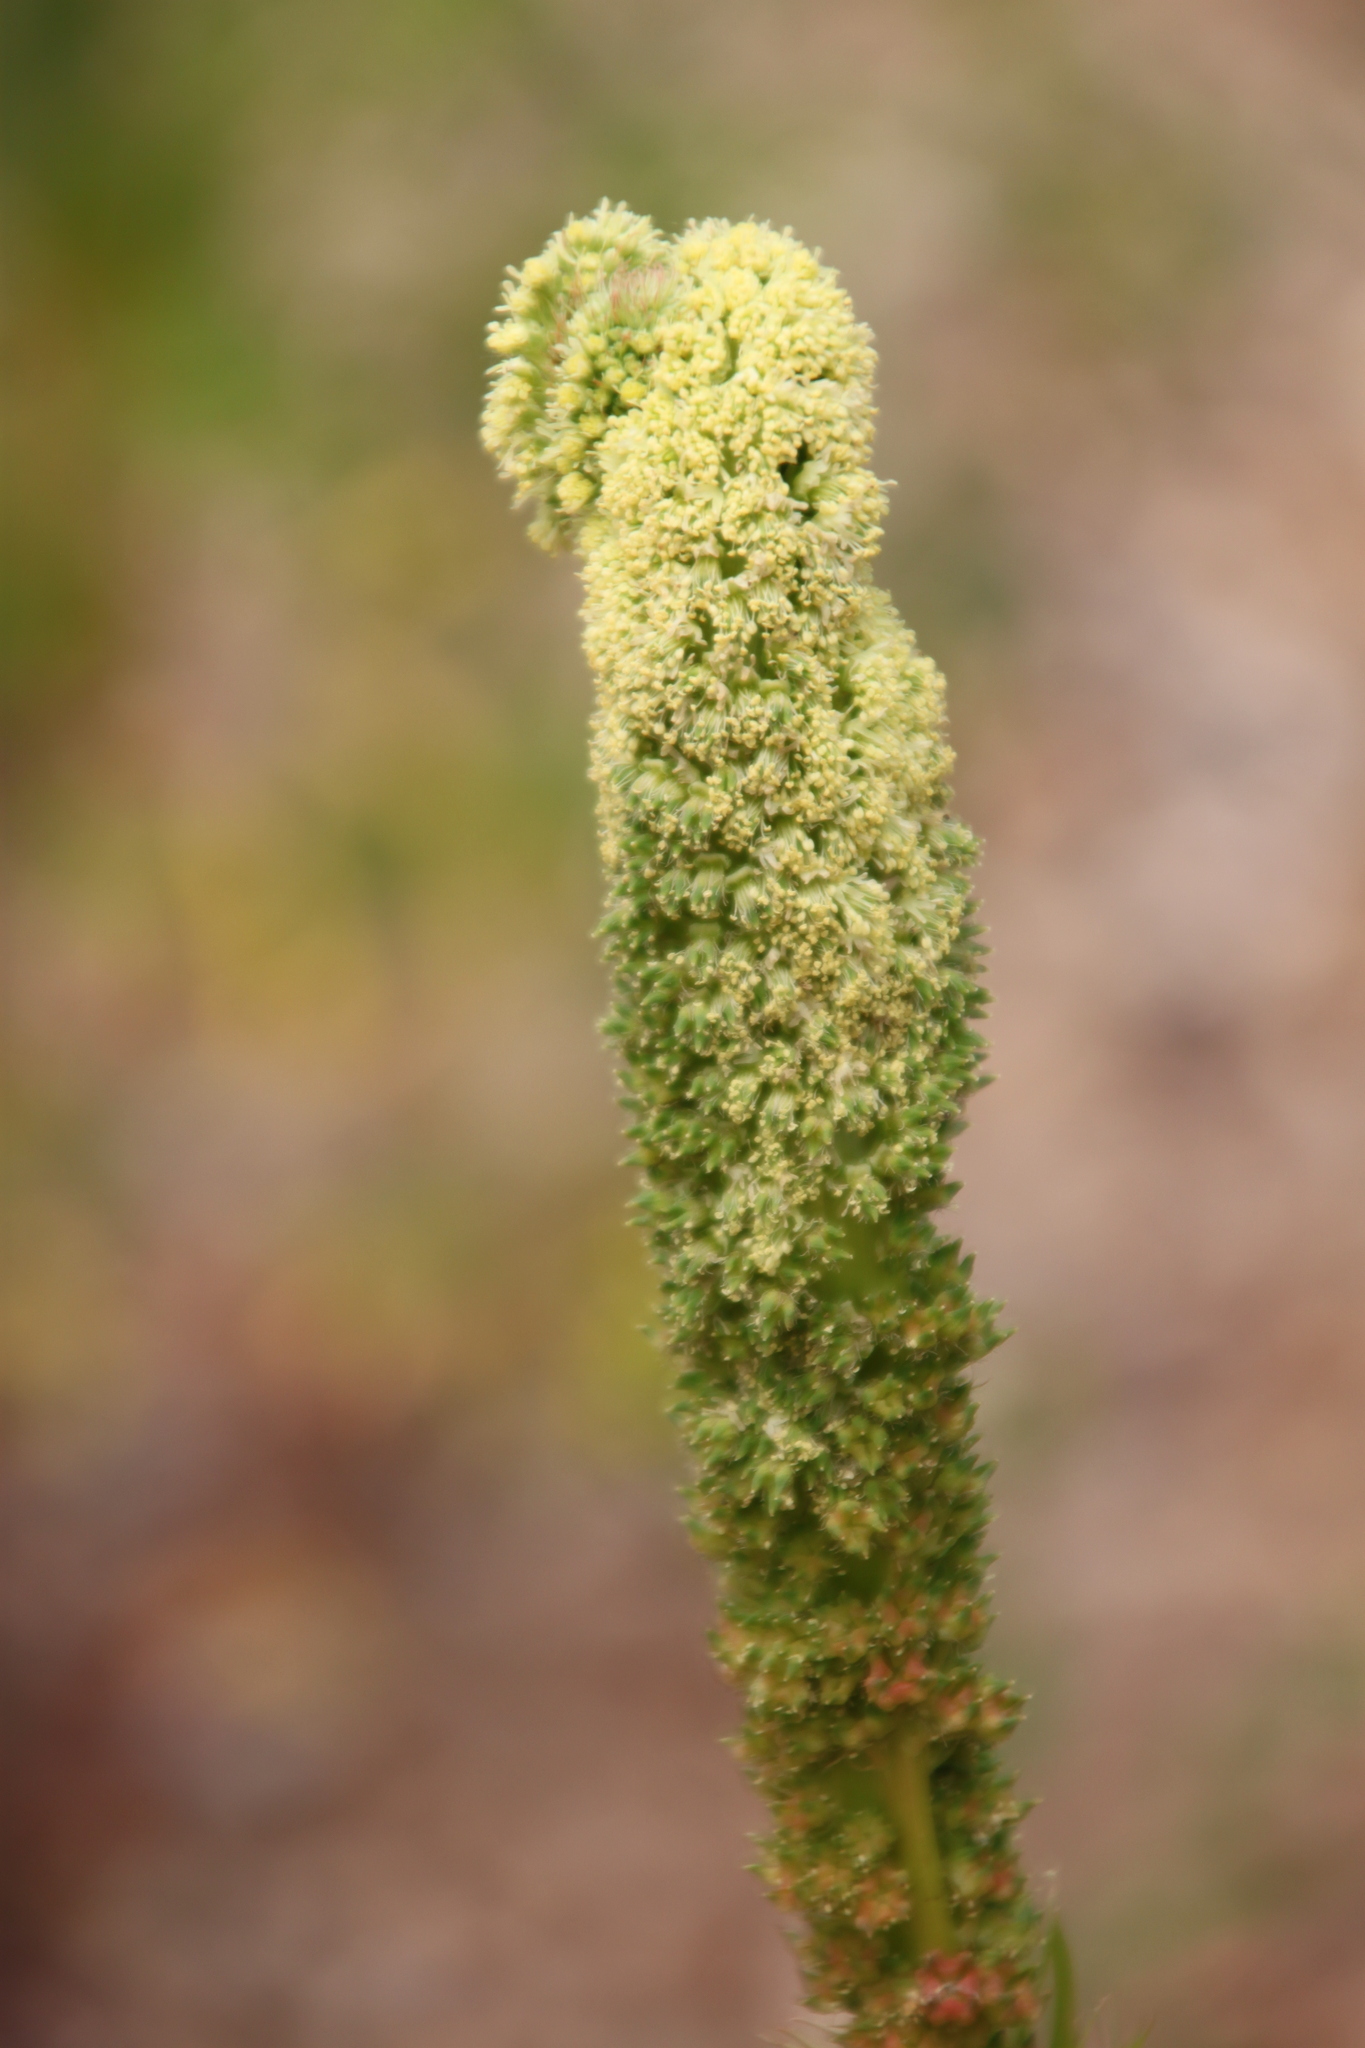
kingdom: Plantae
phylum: Tracheophyta
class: Magnoliopsida
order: Brassicales
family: Resedaceae
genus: Reseda
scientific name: Reseda luteola
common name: Weld
